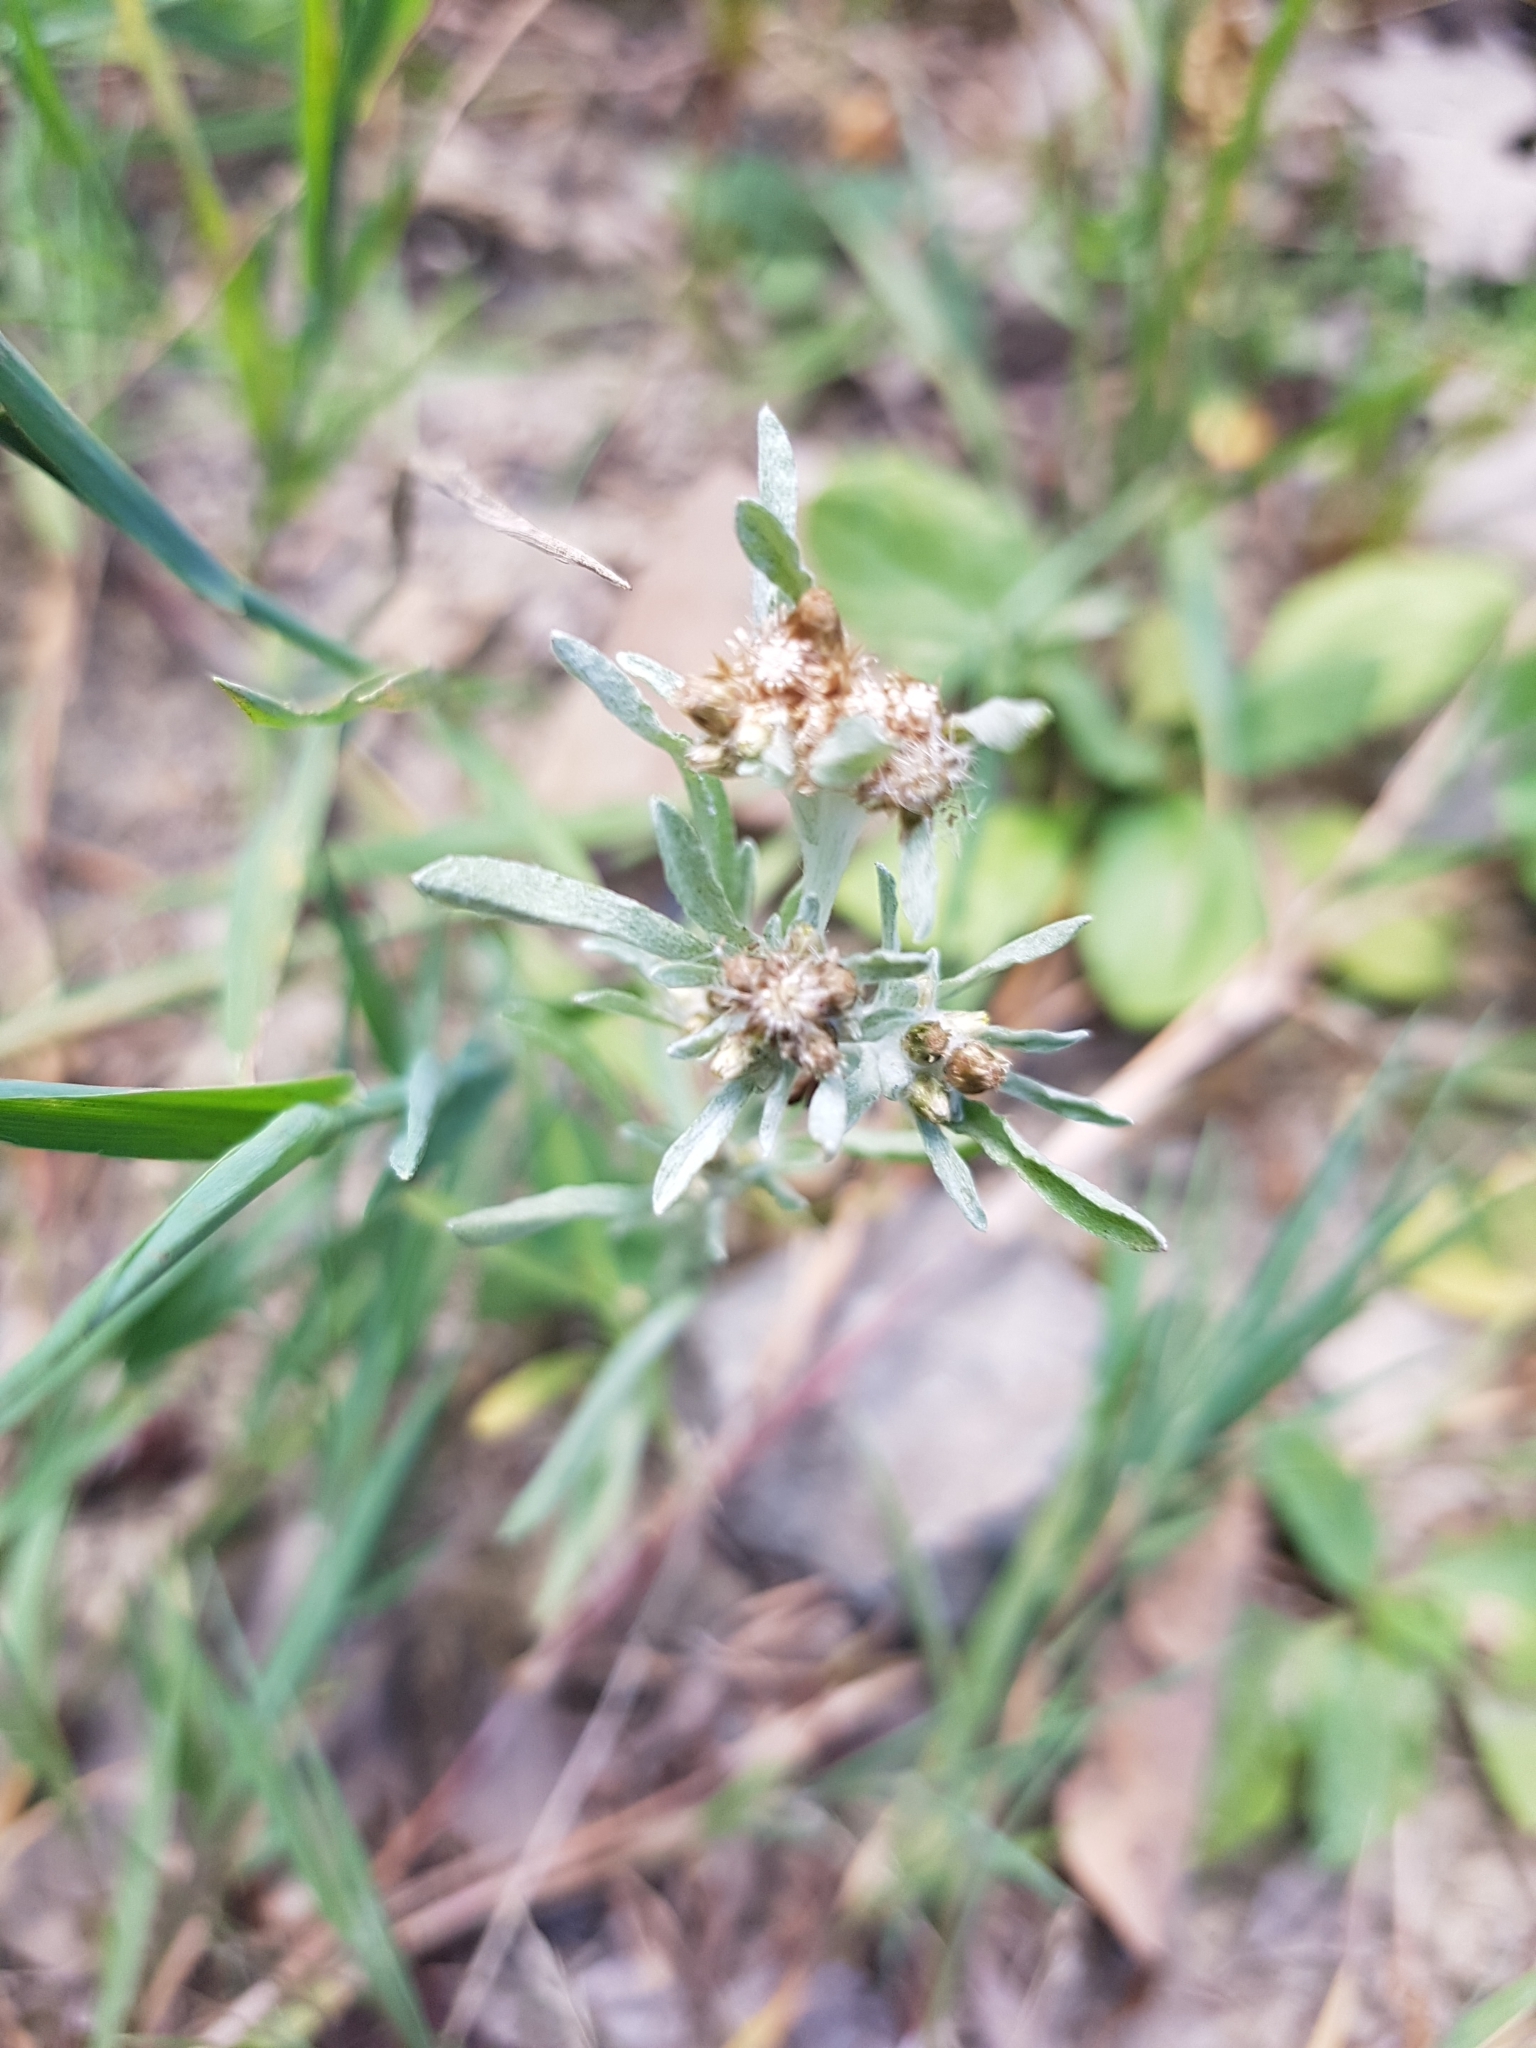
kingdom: Plantae
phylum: Tracheophyta
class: Magnoliopsida
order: Asterales
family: Asteraceae
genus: Gnaphalium
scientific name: Gnaphalium uliginosum
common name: Marsh cudweed
